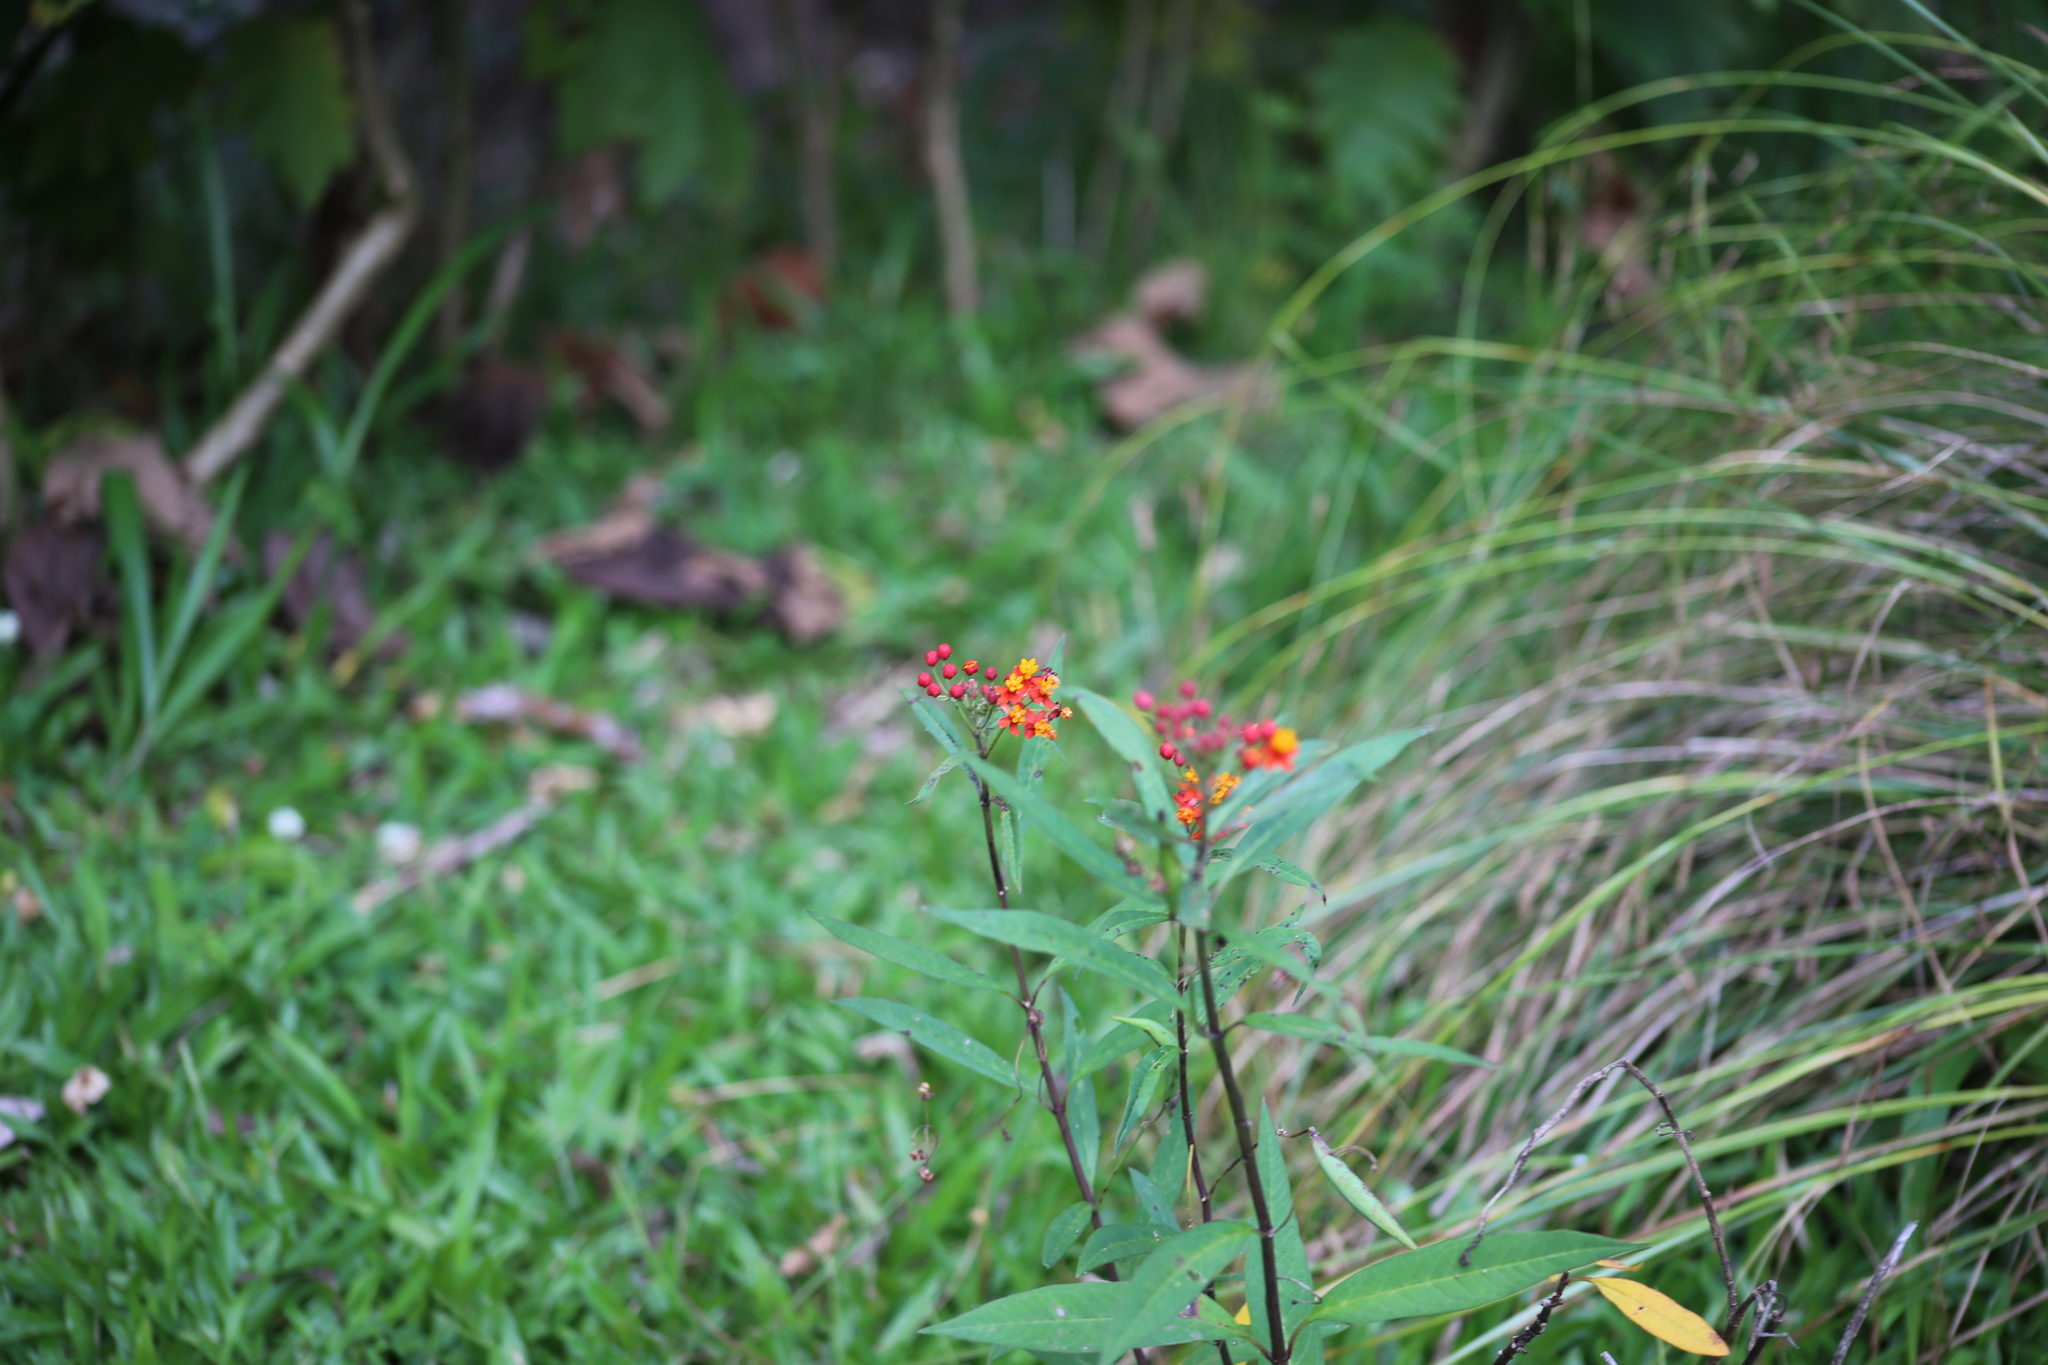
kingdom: Plantae
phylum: Tracheophyta
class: Magnoliopsida
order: Gentianales
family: Apocynaceae
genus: Asclepias
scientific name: Asclepias curassavica
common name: Bloodflower
